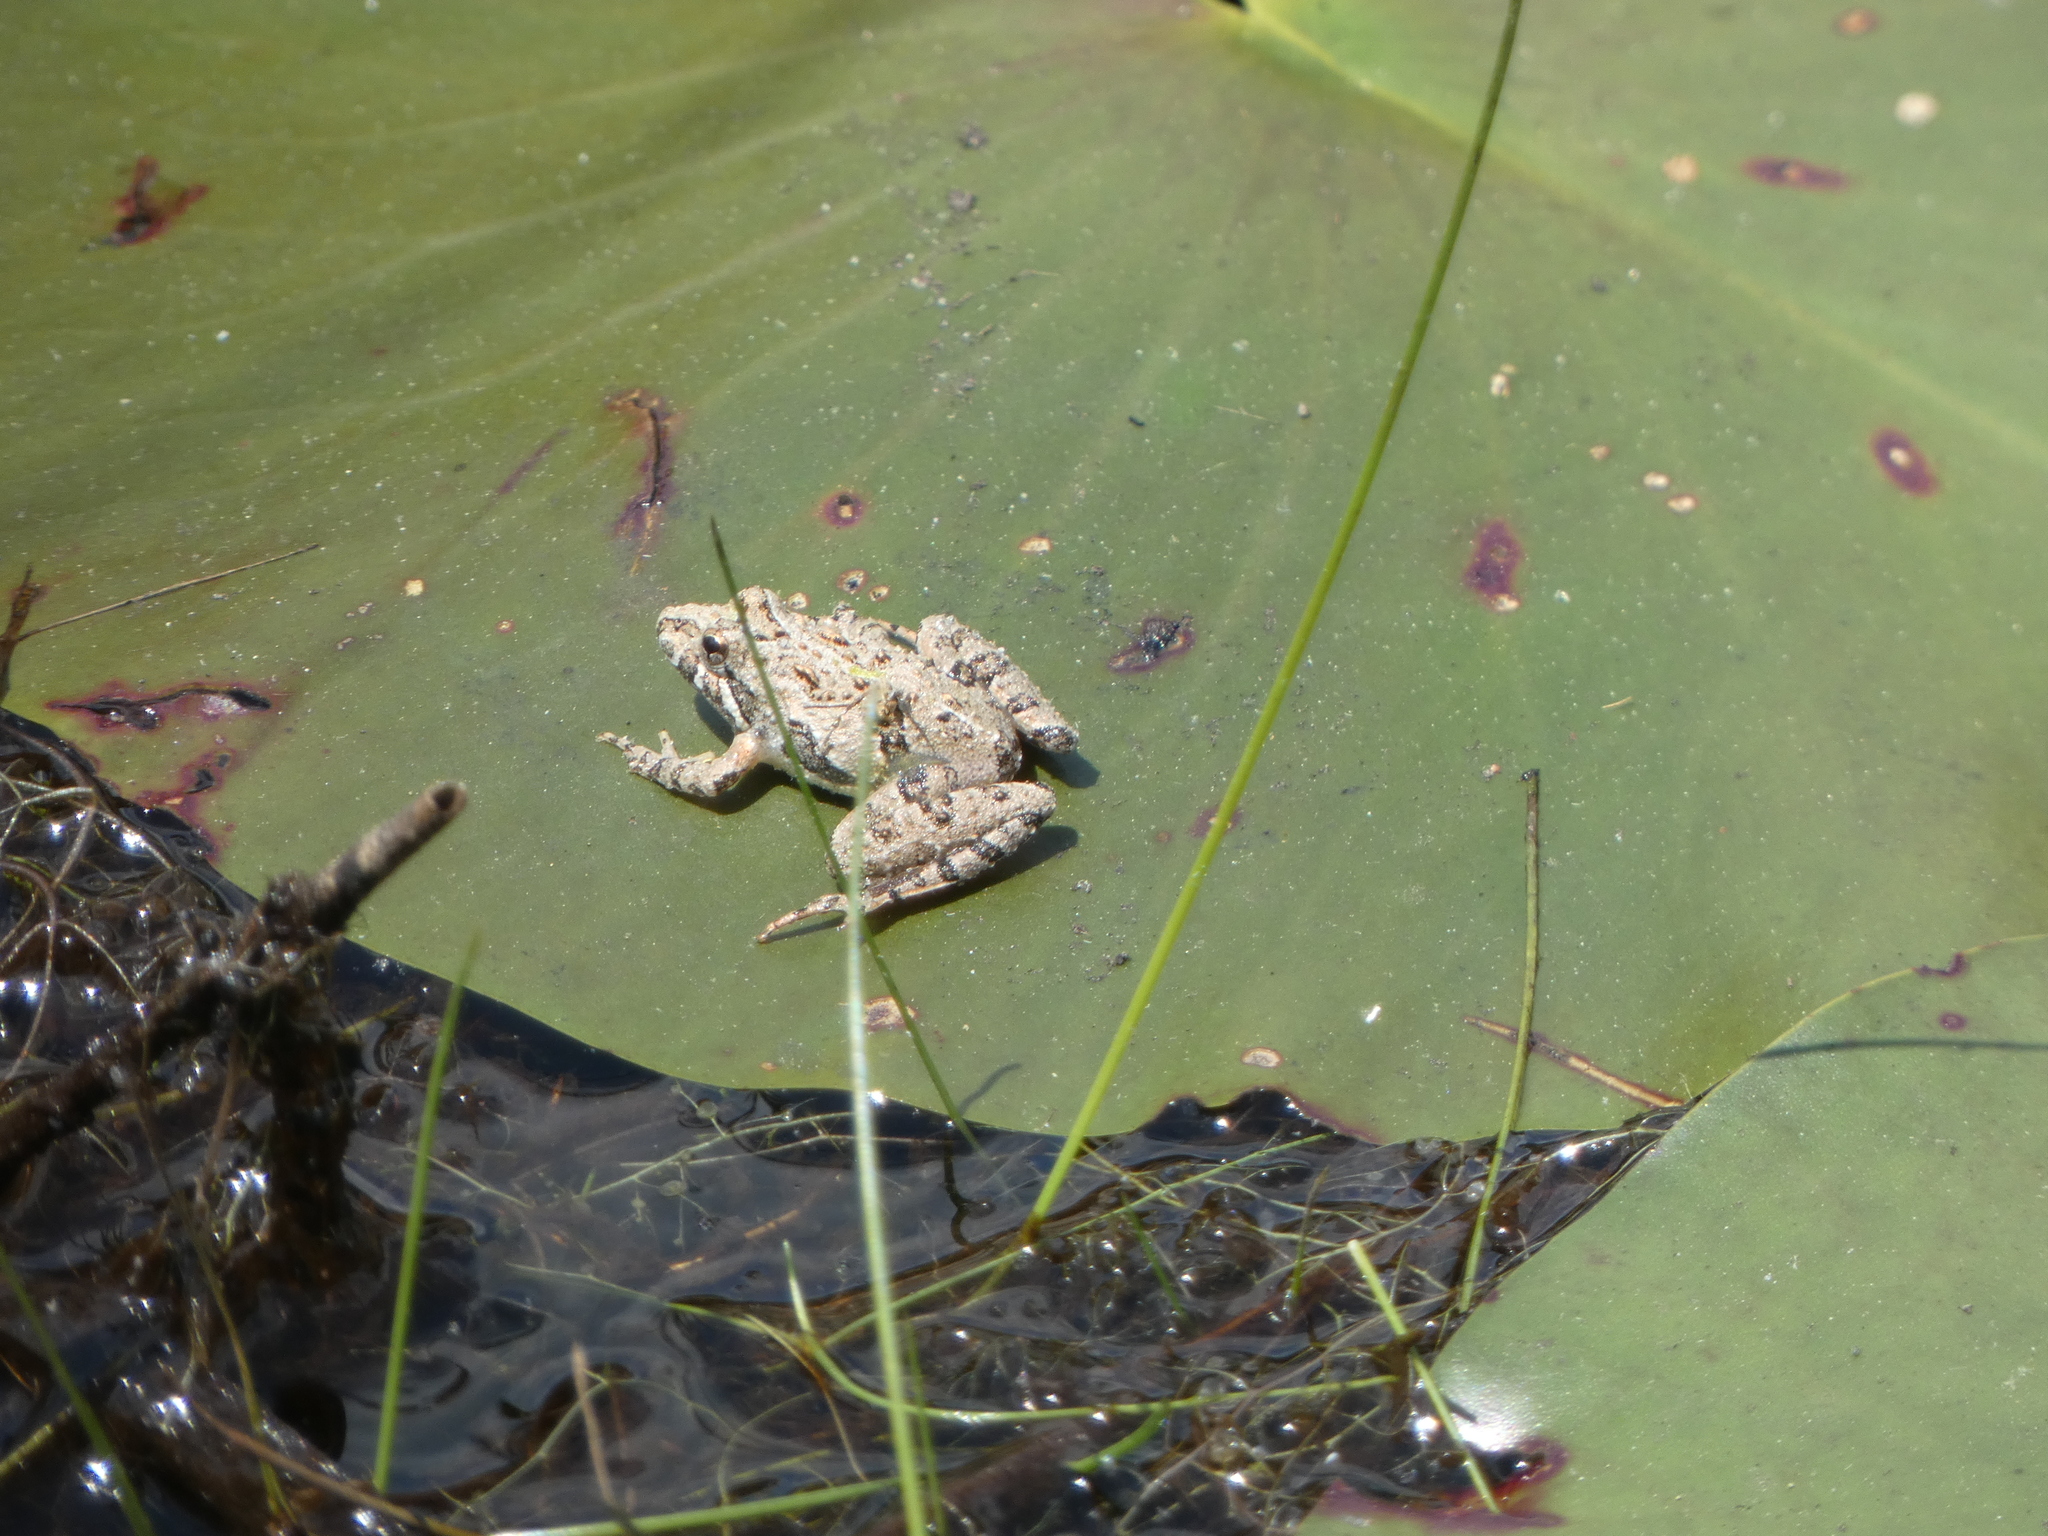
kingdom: Animalia
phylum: Chordata
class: Amphibia
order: Anura
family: Hylidae
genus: Acris
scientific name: Acris gryllus
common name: Southern cricket frog
